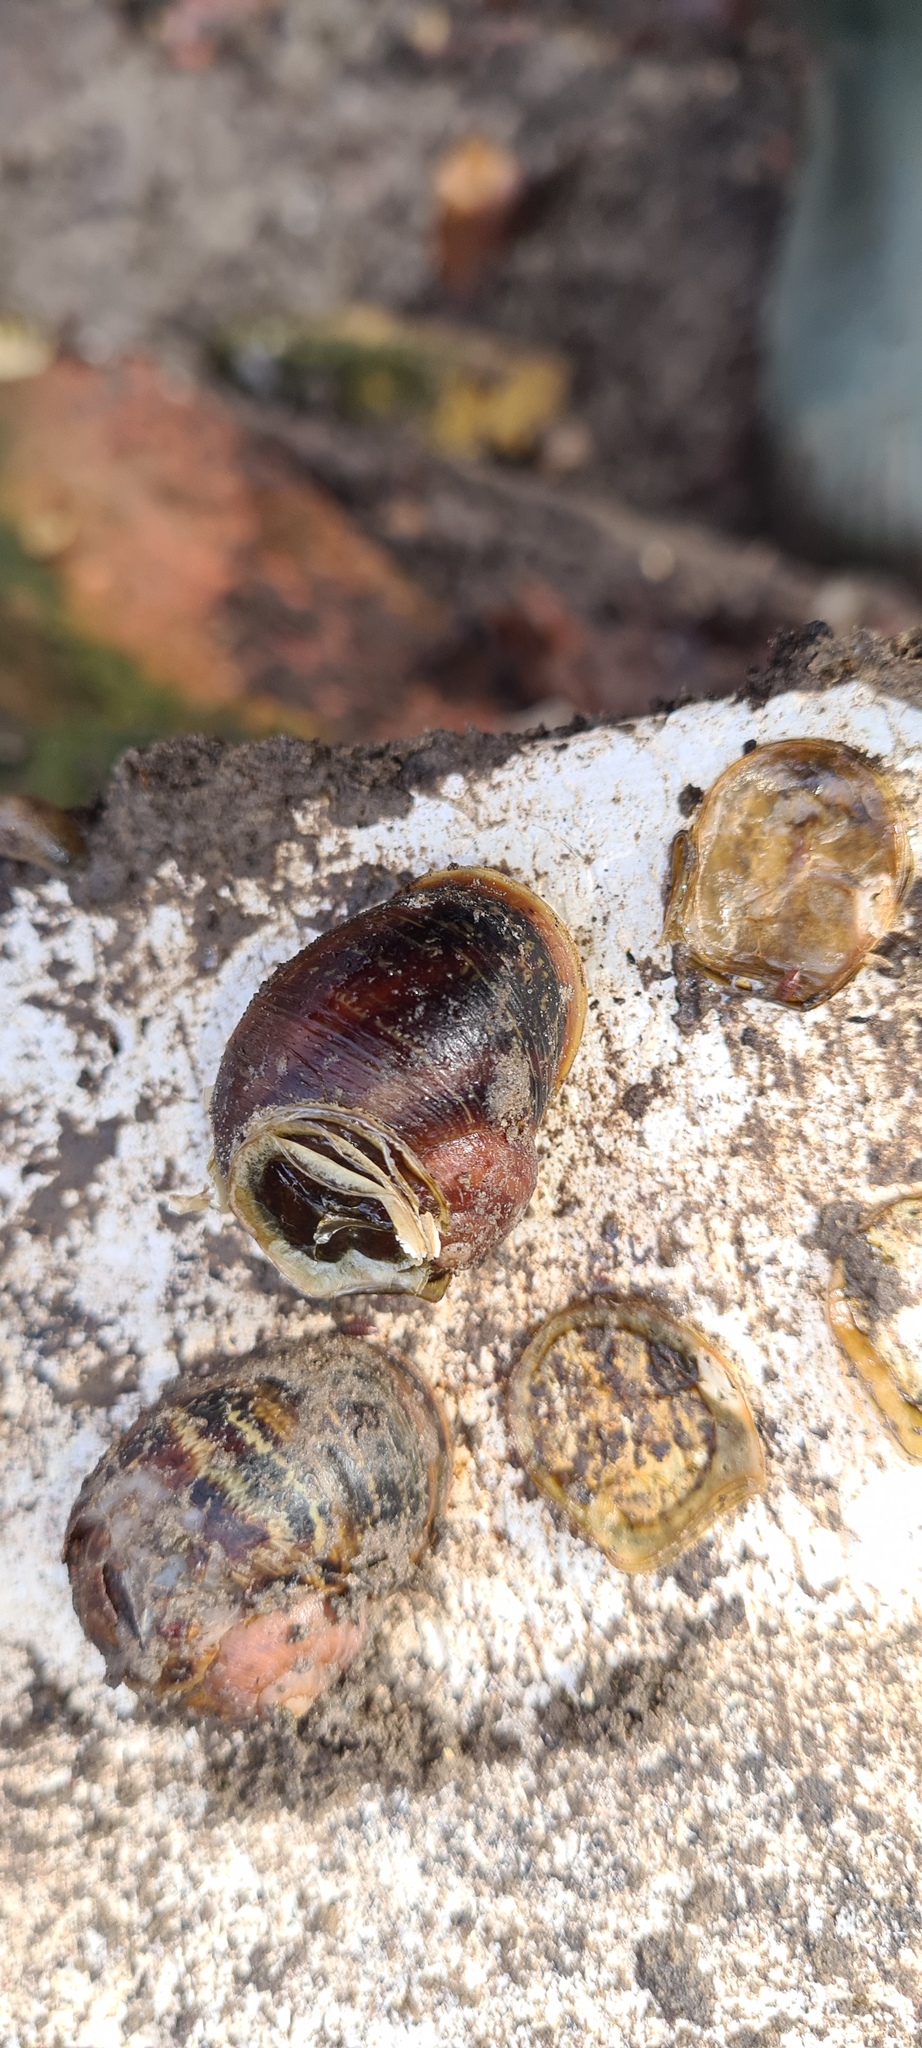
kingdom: Animalia
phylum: Mollusca
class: Gastropoda
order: Stylommatophora
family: Helicidae
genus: Cornu
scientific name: Cornu aspersum
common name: Brown garden snail
